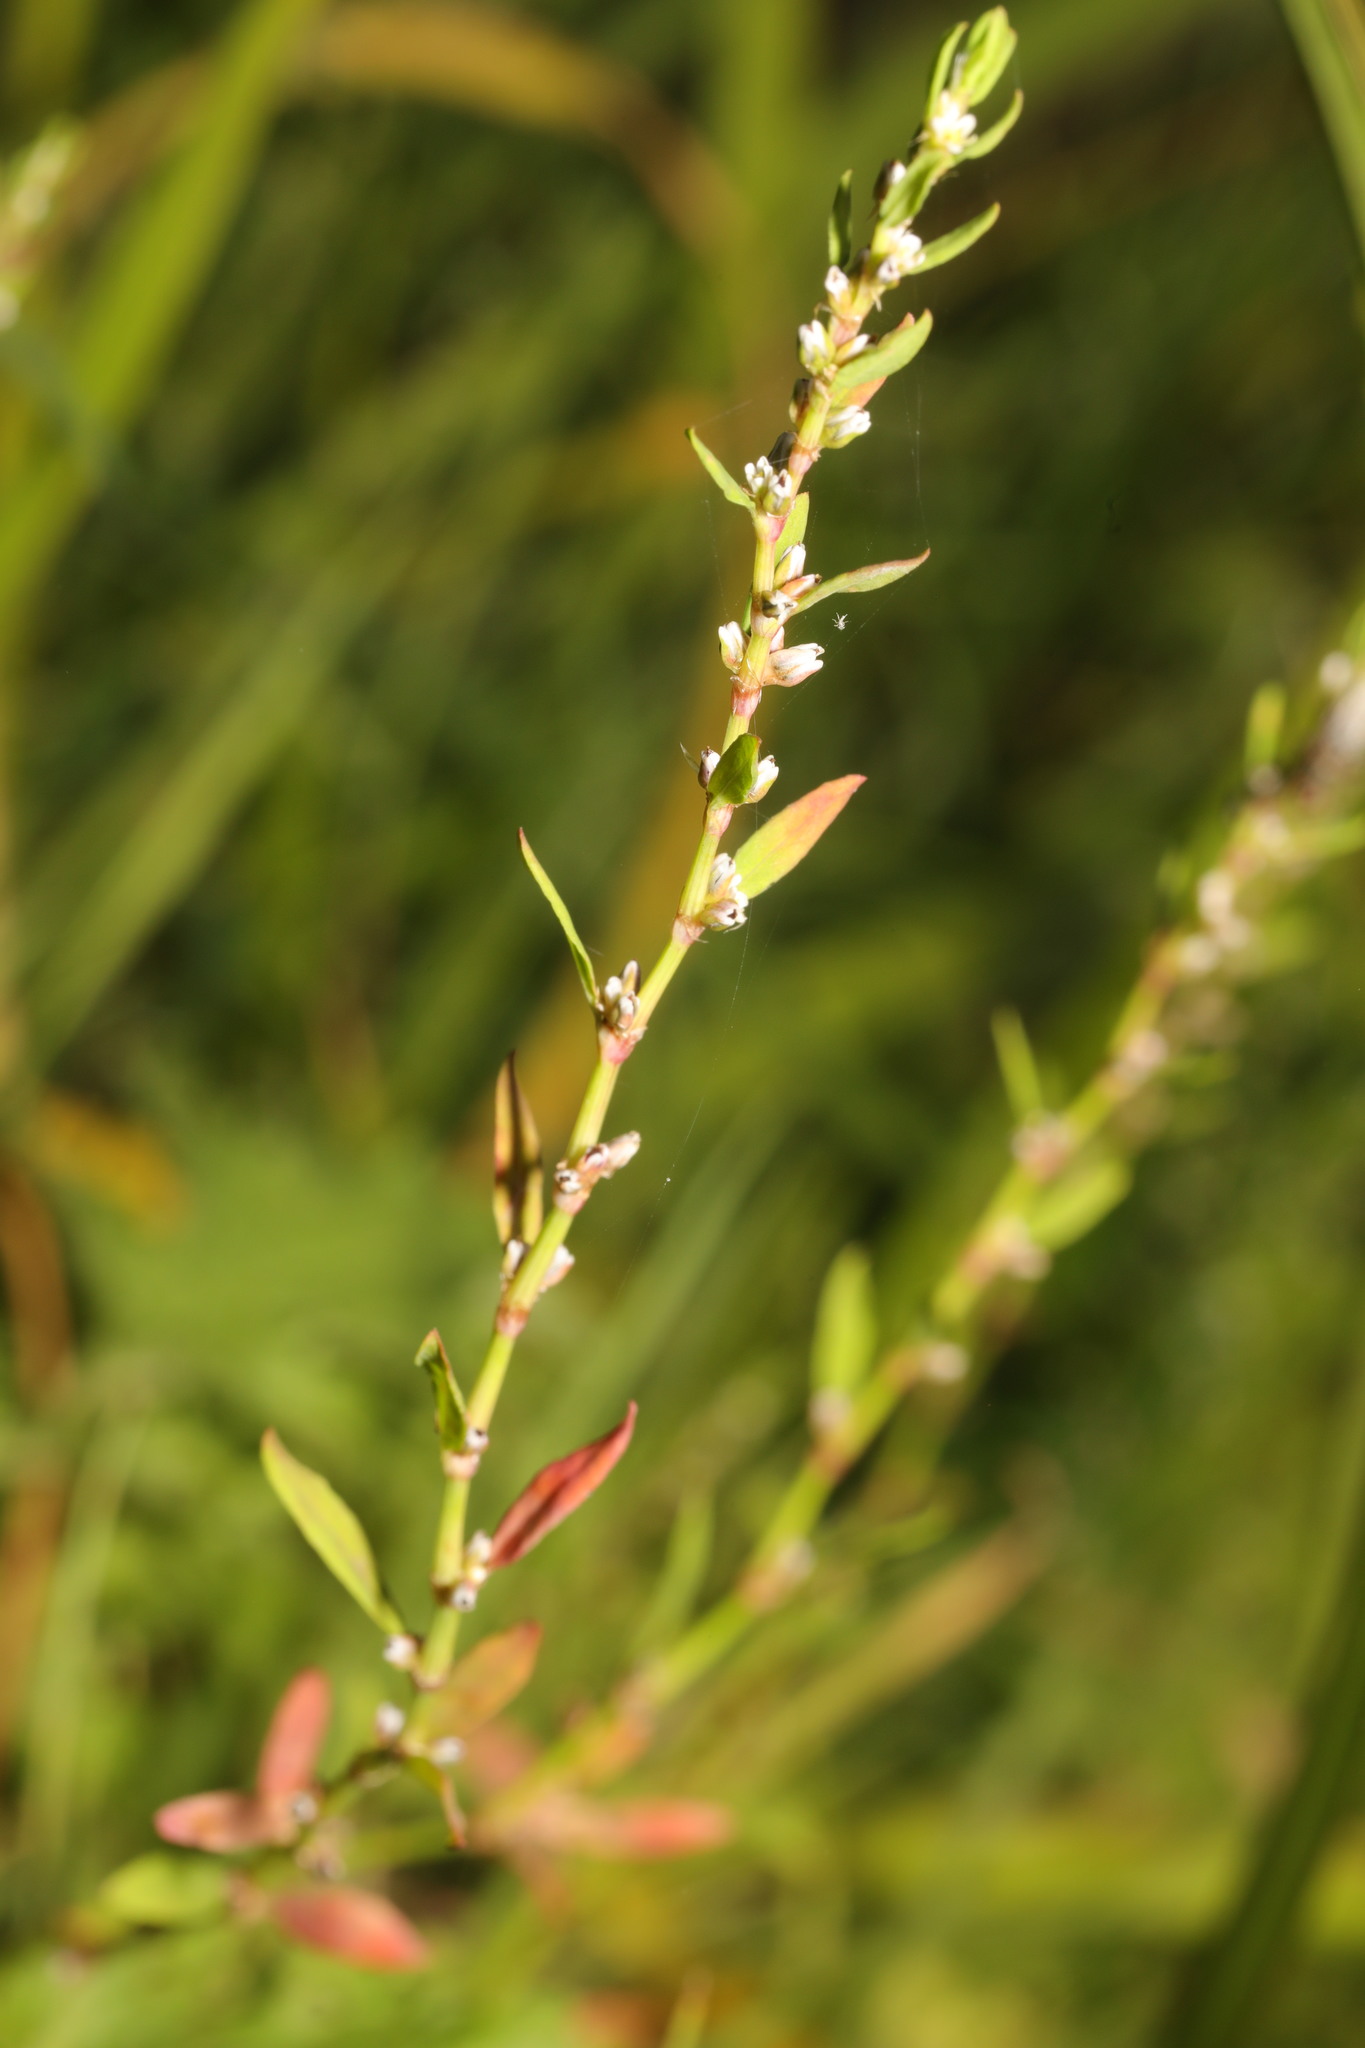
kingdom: Plantae
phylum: Tracheophyta
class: Magnoliopsida
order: Caryophyllales
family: Polygonaceae
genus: Polygonum
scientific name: Polygonum aviculare
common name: Prostrate knotweed
